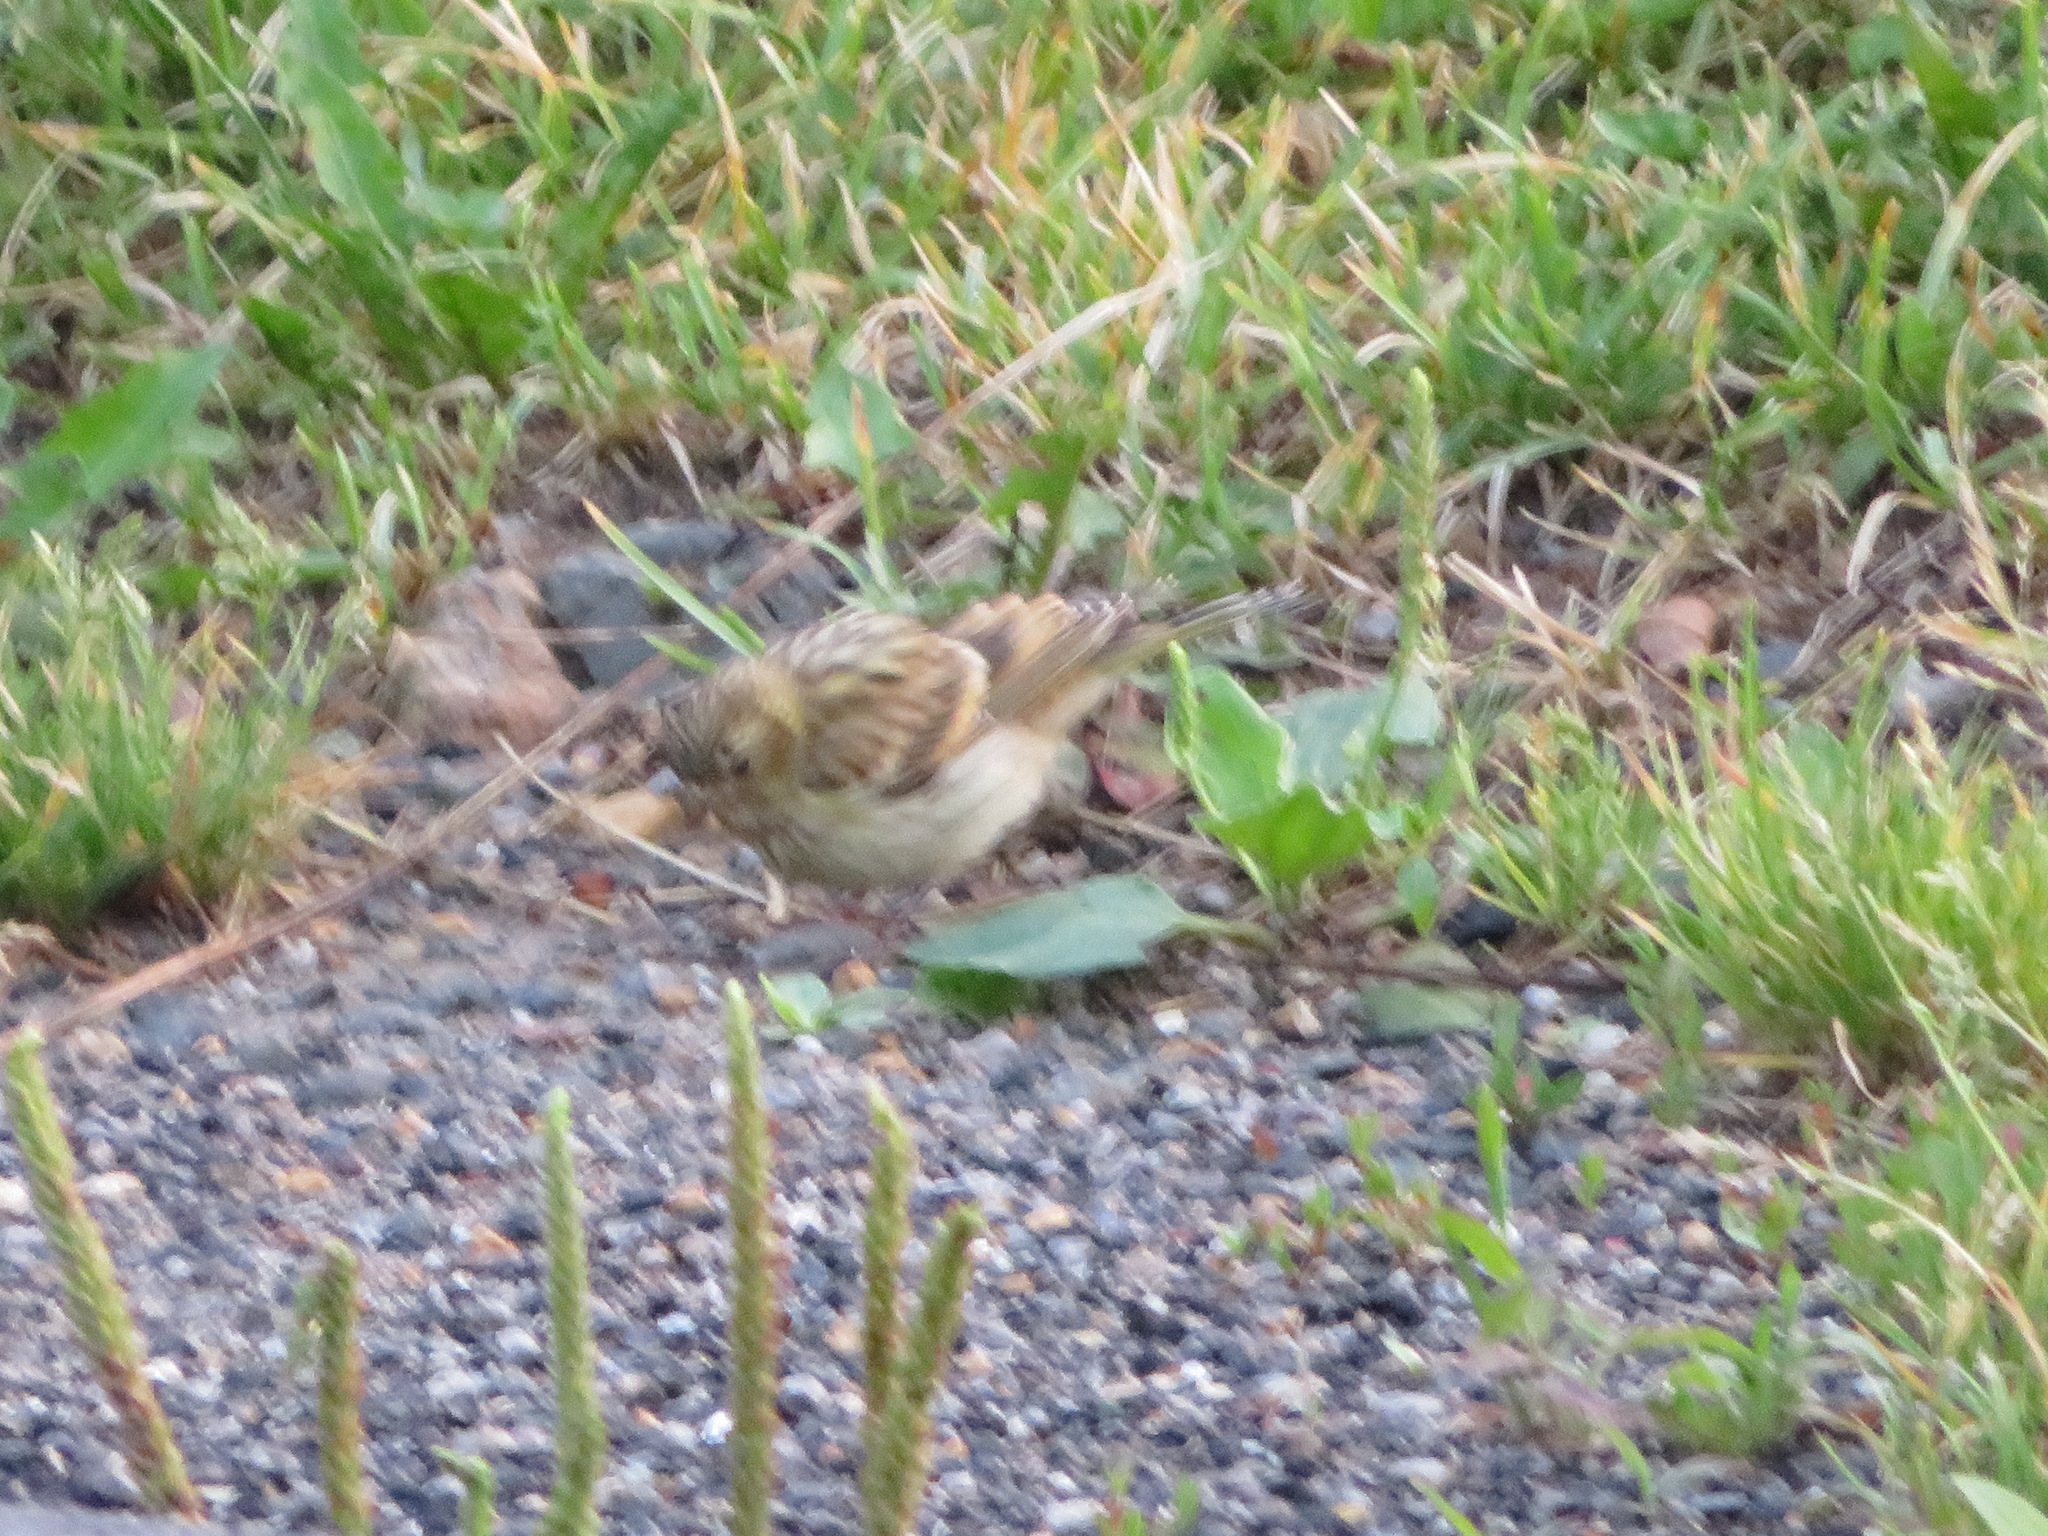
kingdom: Animalia
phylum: Chordata
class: Aves
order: Passeriformes
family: Fringillidae
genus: Serinus
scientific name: Serinus serinus
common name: European serin
